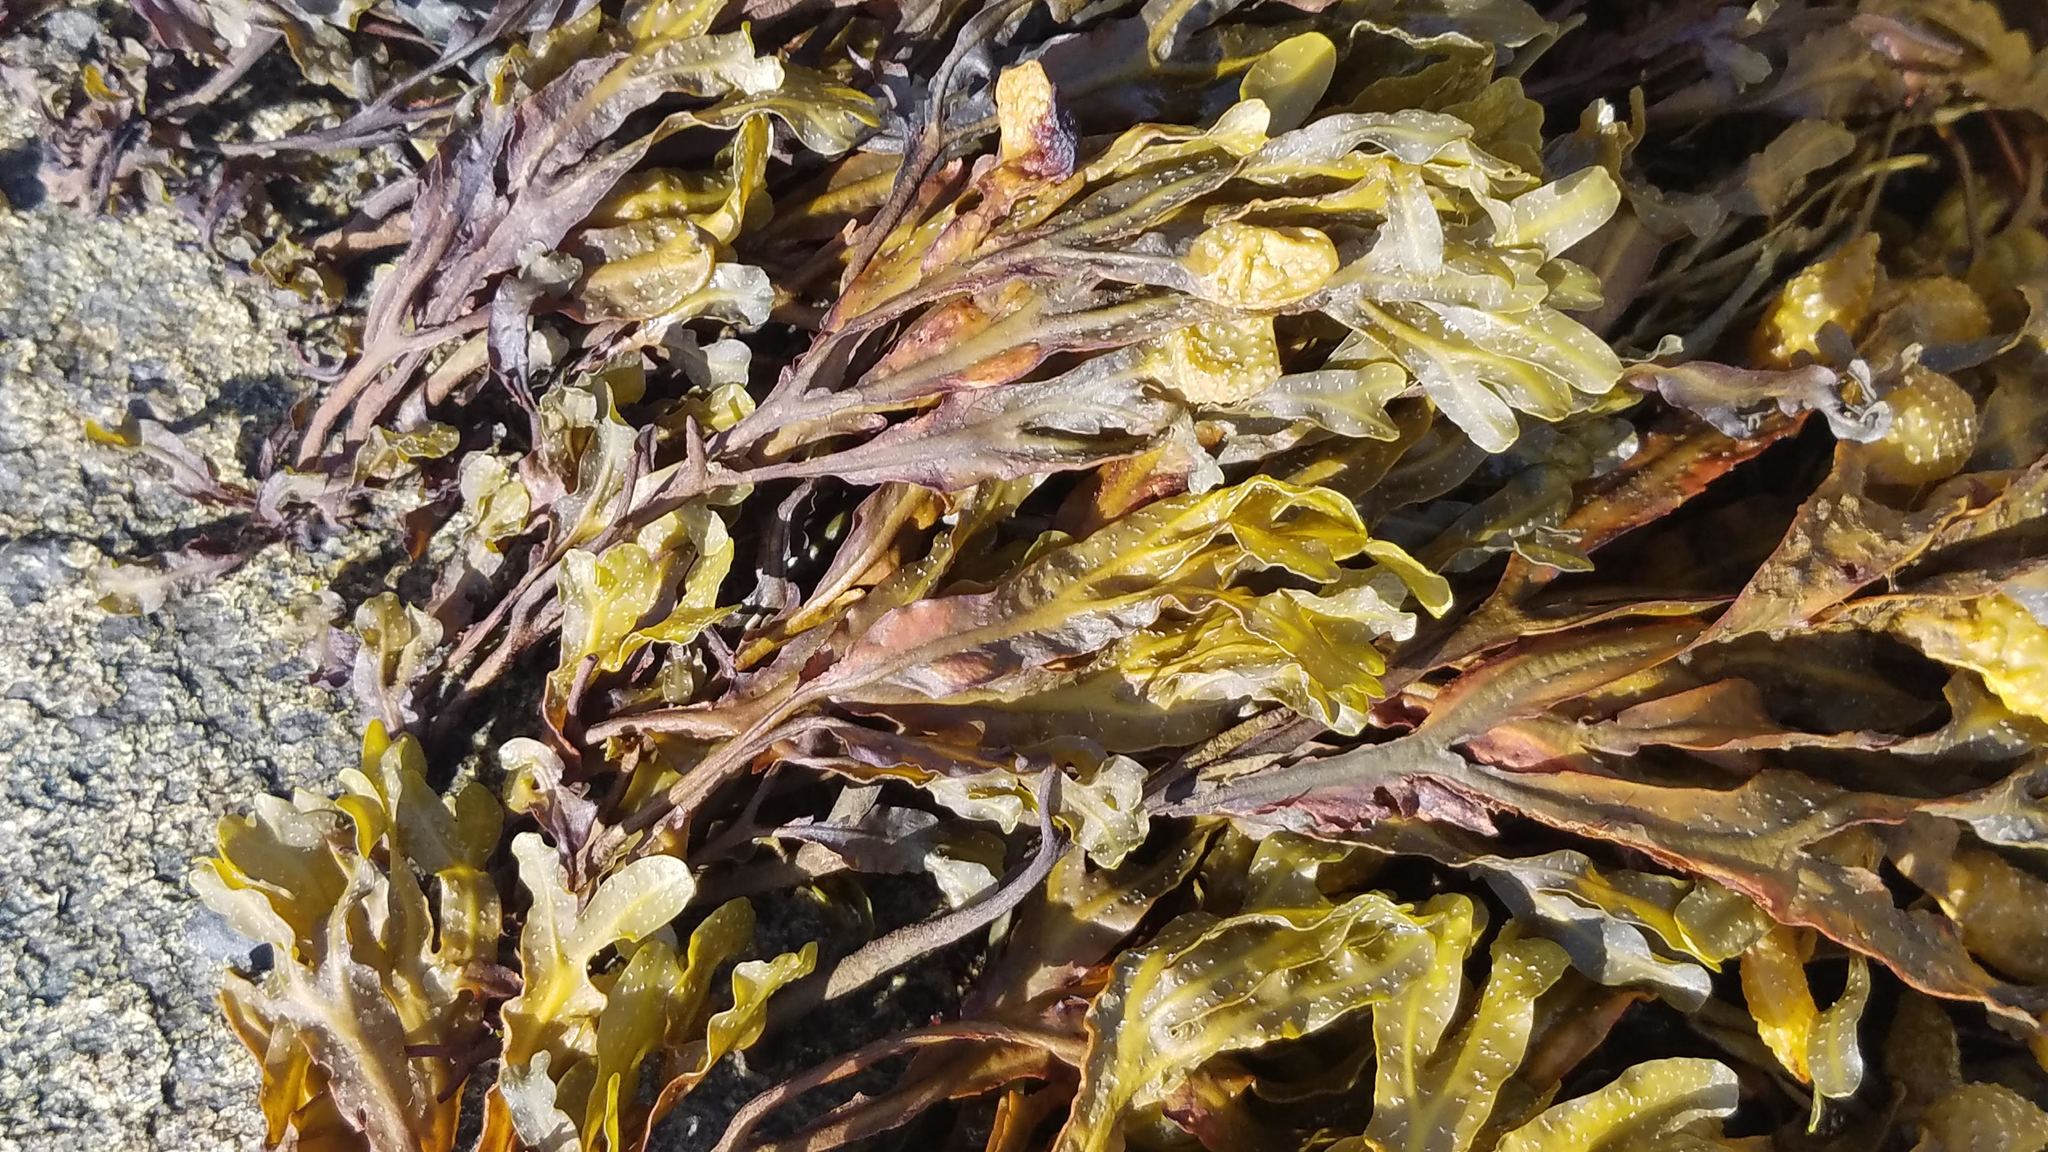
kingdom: Chromista
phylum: Ochrophyta
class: Phaeophyceae
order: Fucales
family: Fucaceae
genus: Fucus
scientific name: Fucus
